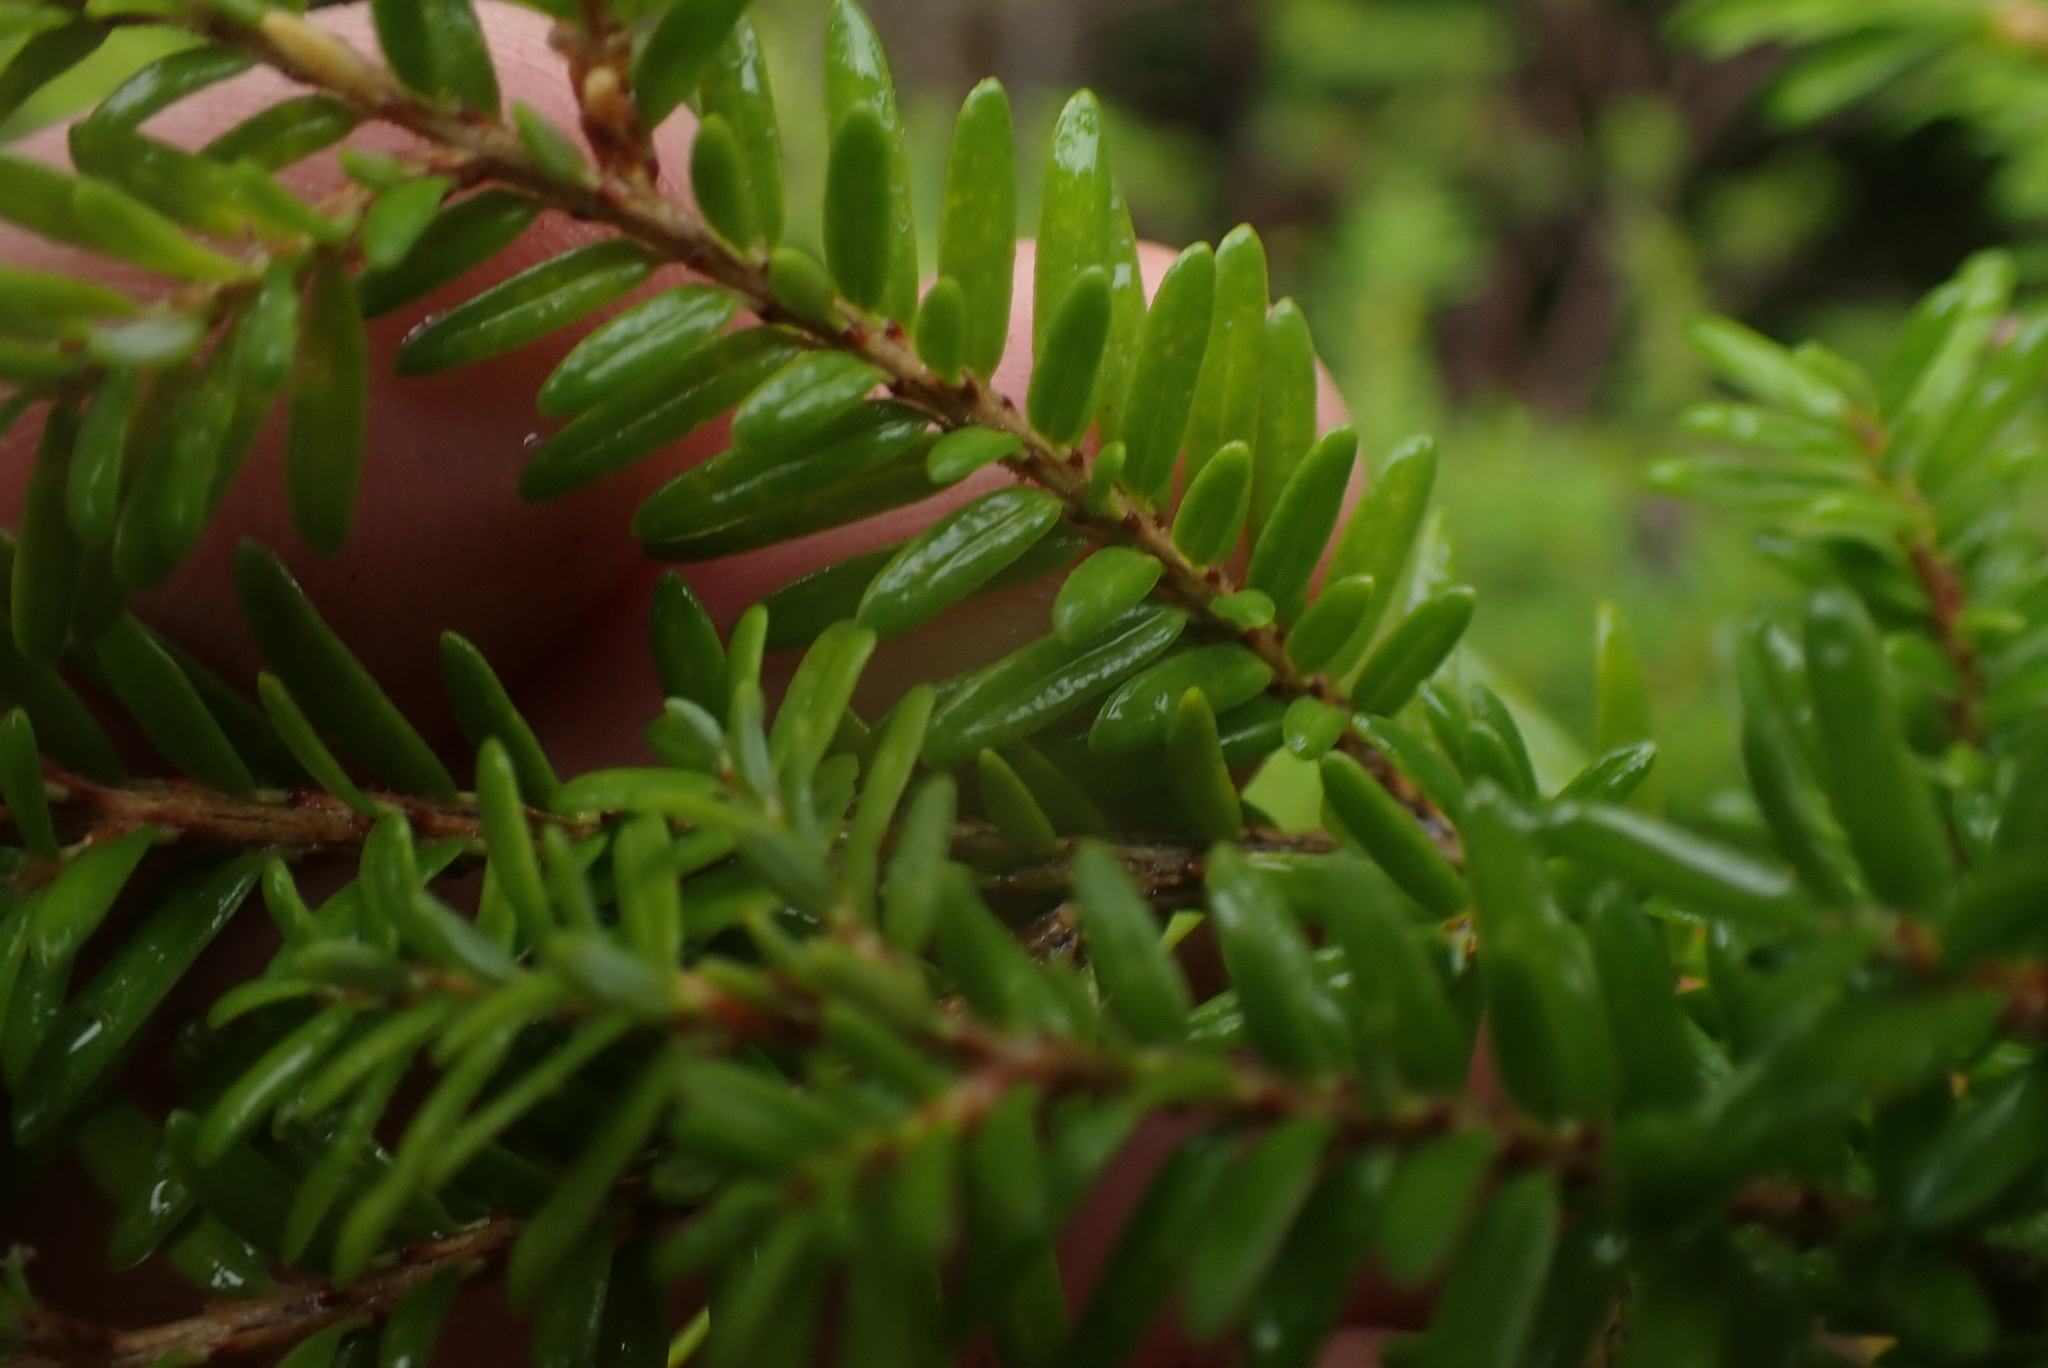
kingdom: Plantae
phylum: Tracheophyta
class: Pinopsida
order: Pinales
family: Pinaceae
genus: Tsuga
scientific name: Tsuga heterophylla
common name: Western hemlock
